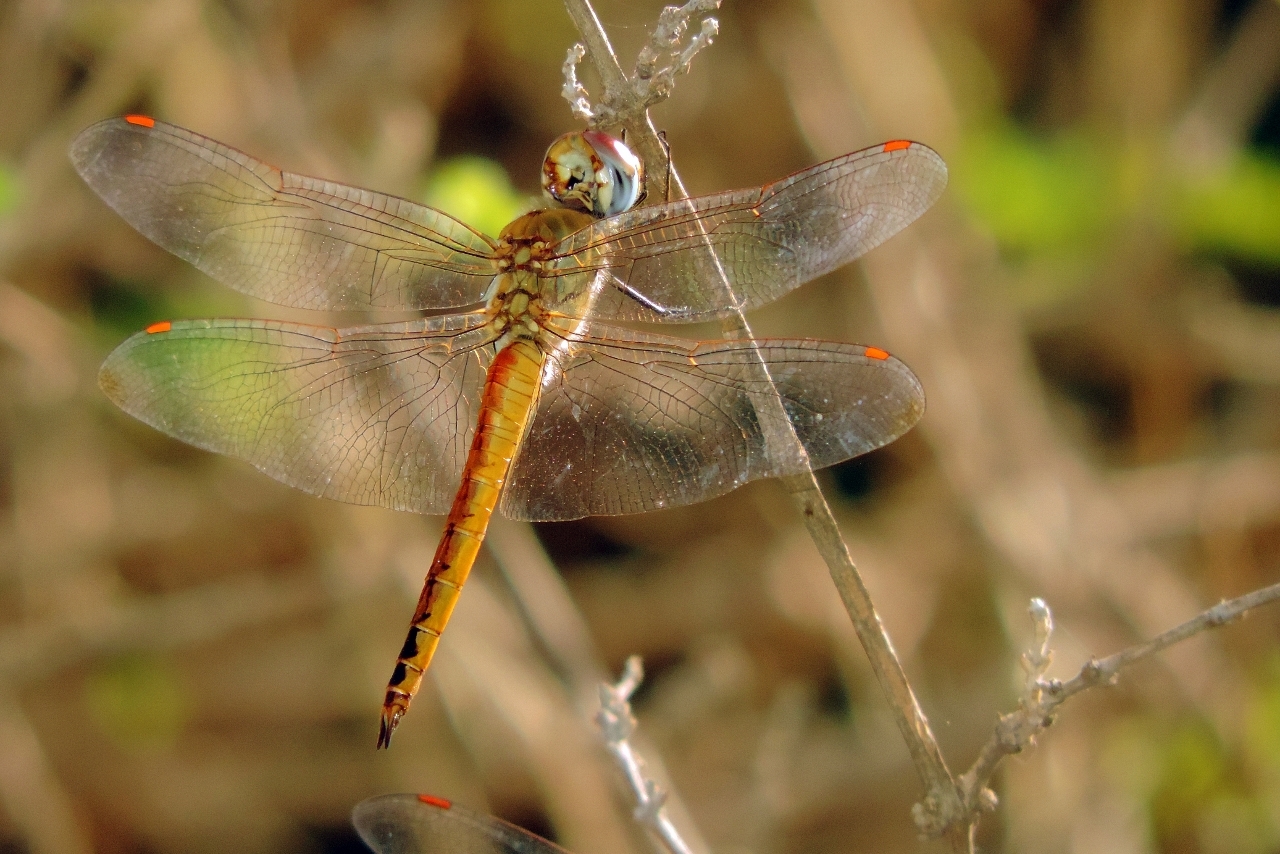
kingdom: Animalia
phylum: Arthropoda
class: Insecta
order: Odonata
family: Libellulidae
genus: Pantala
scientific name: Pantala flavescens
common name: Wandering glider
